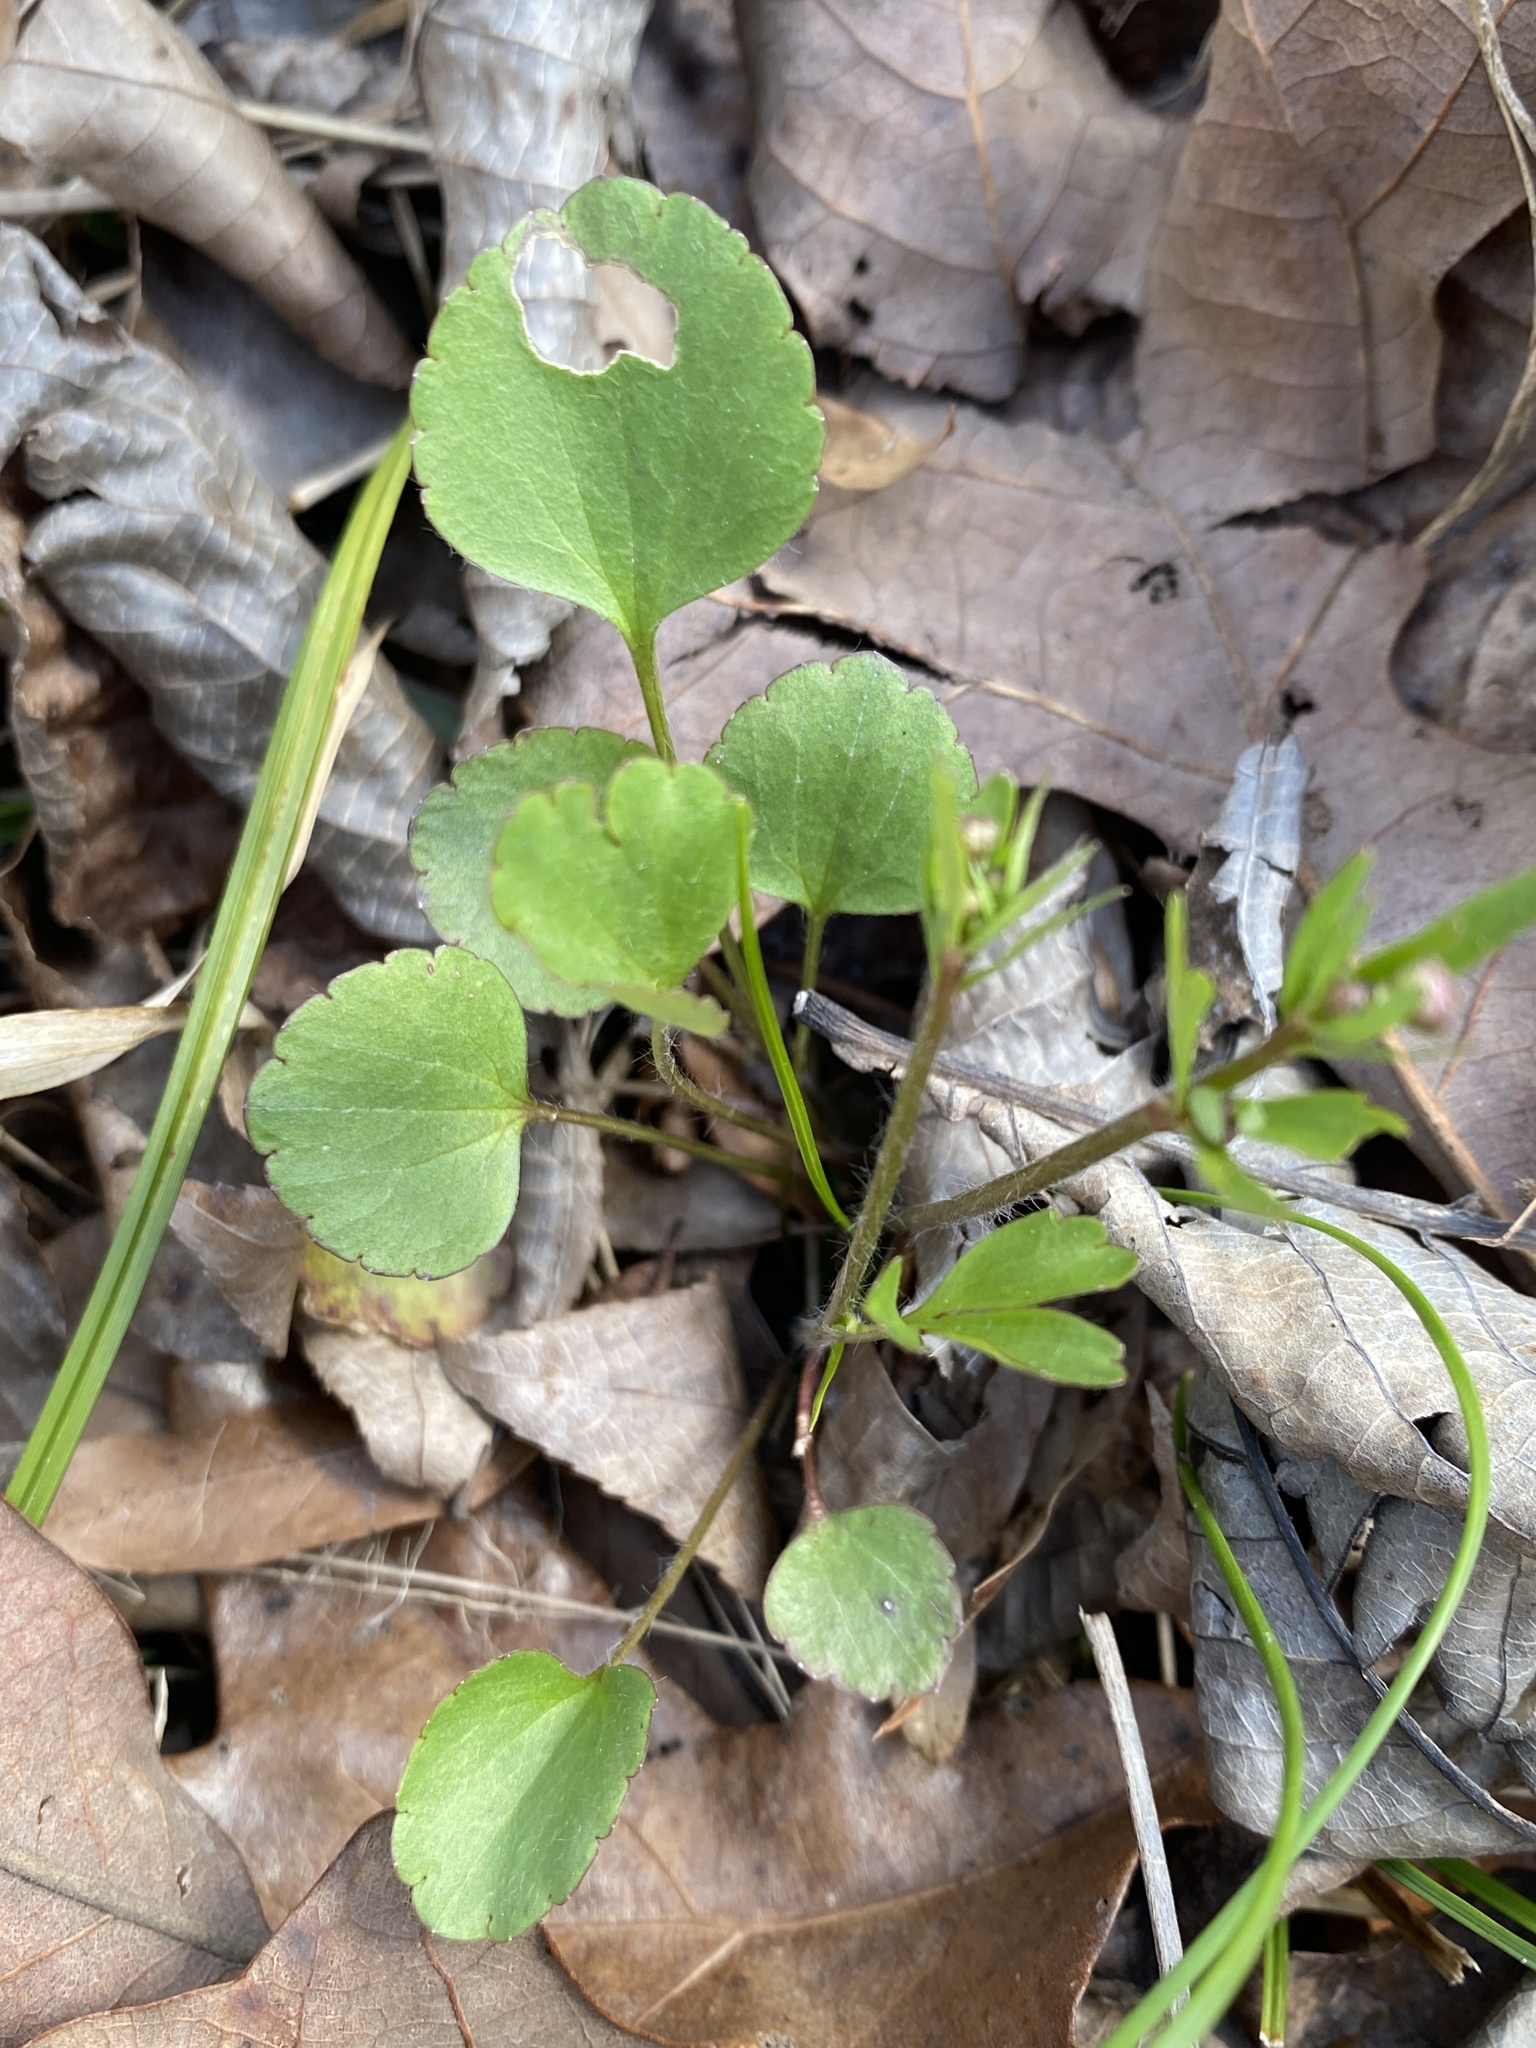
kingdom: Plantae
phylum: Tracheophyta
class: Magnoliopsida
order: Ranunculales
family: Ranunculaceae
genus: Ranunculus
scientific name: Ranunculus micranthus
